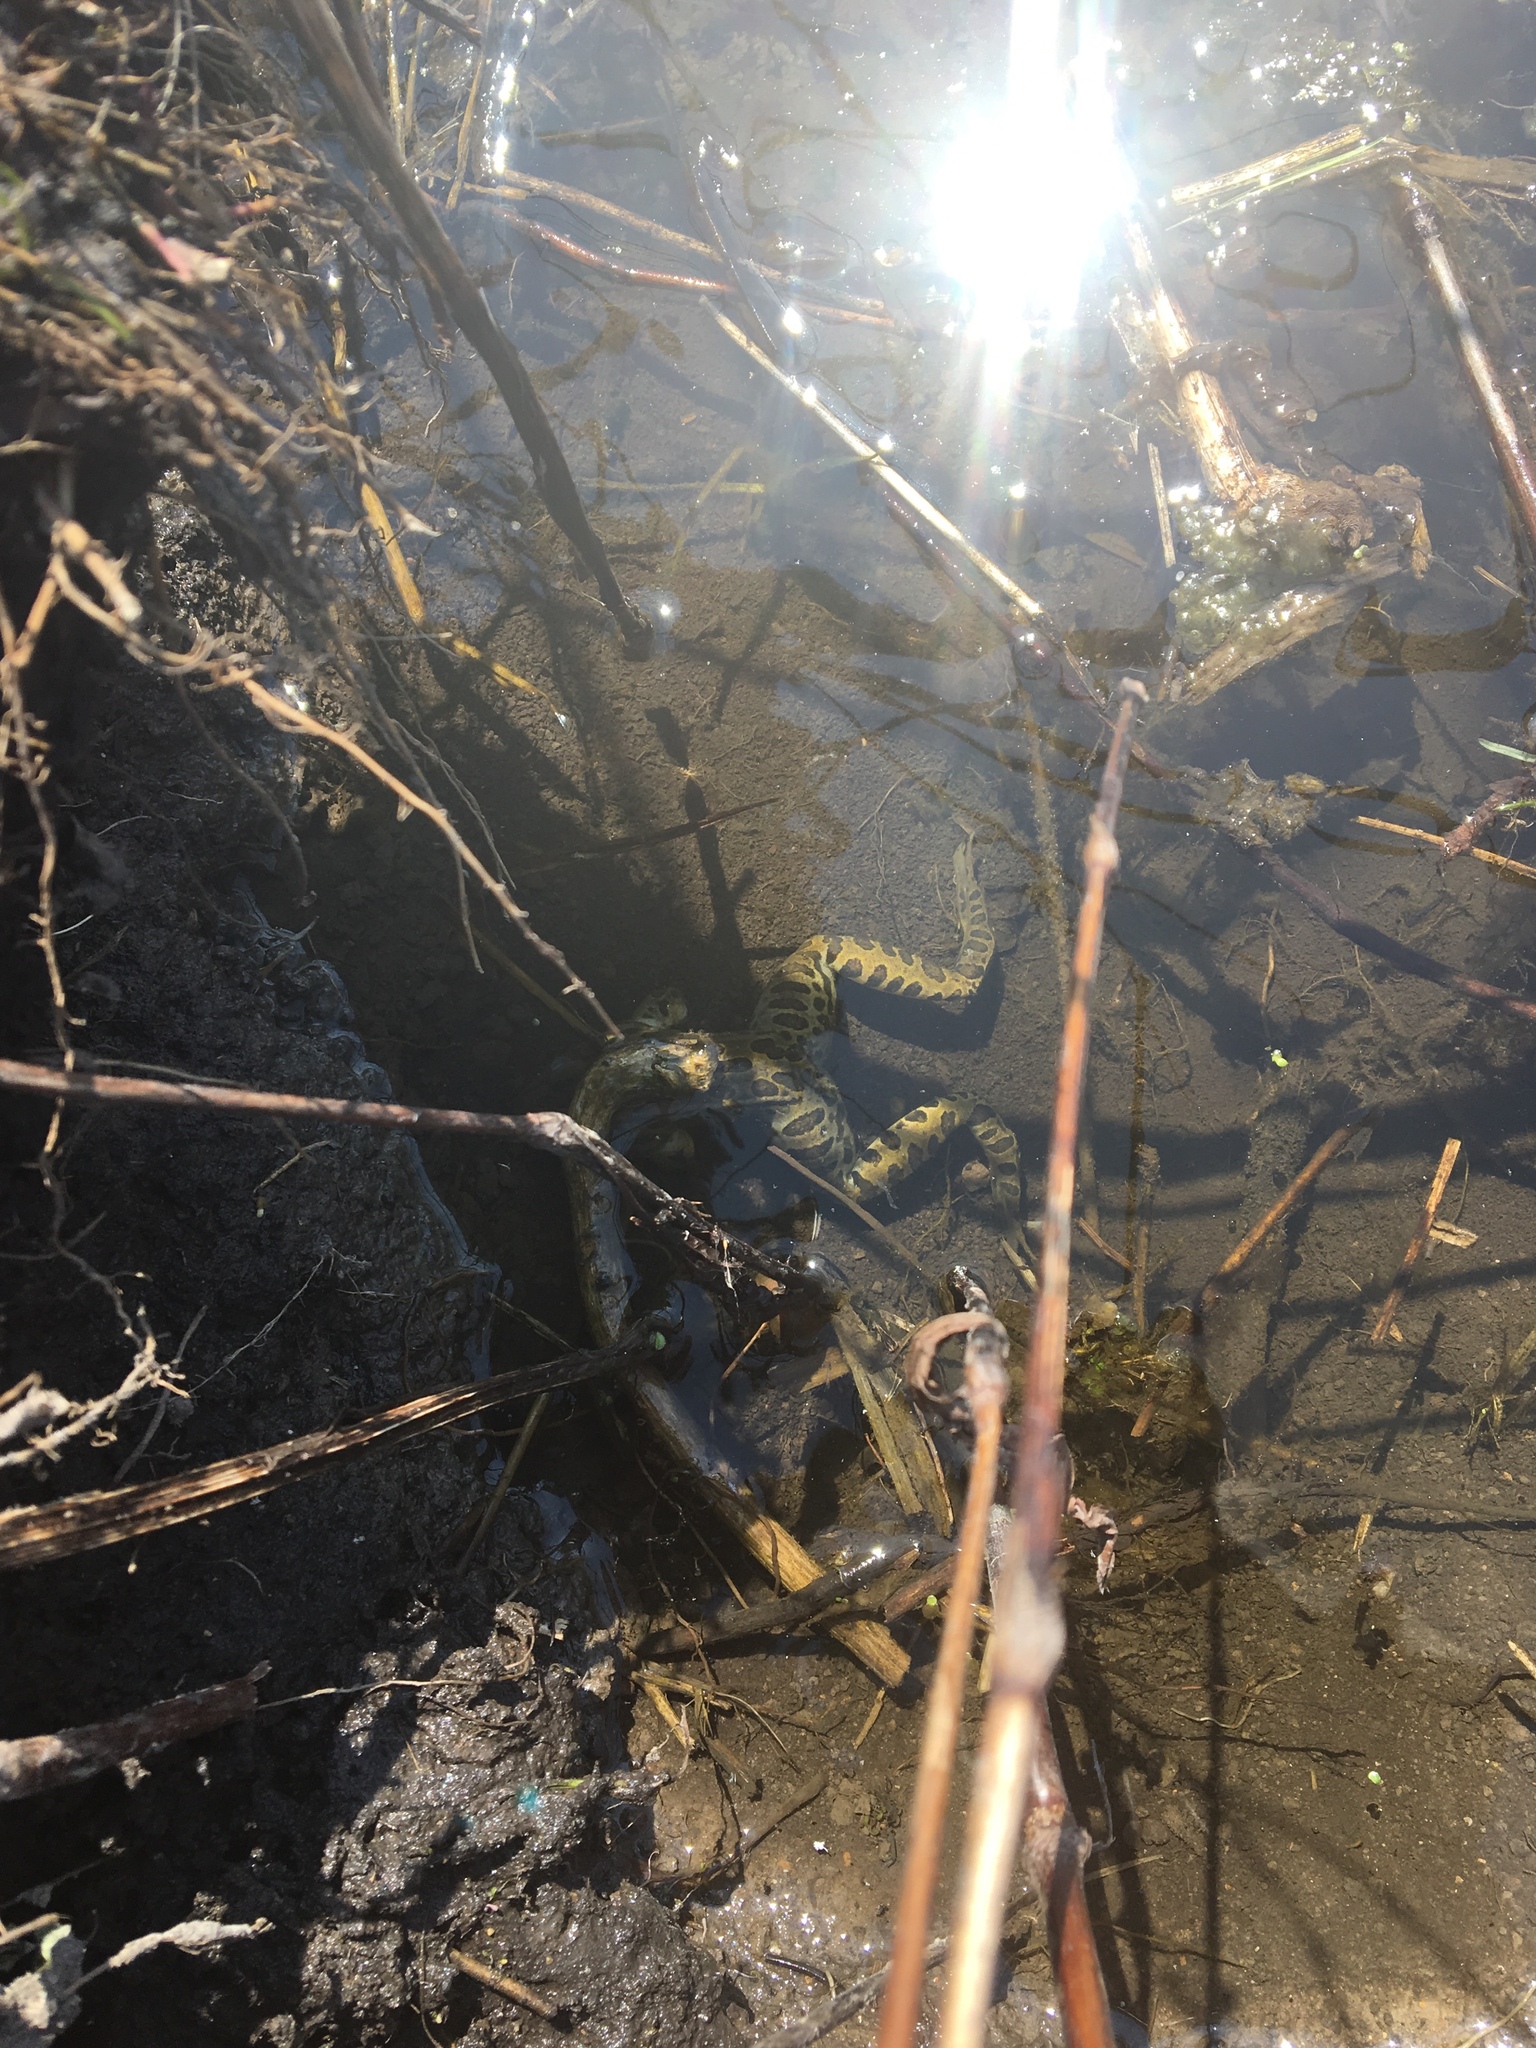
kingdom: Animalia
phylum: Chordata
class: Amphibia
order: Anura
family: Ranidae
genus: Lithobates
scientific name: Lithobates pipiens
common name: Northern leopard frog
